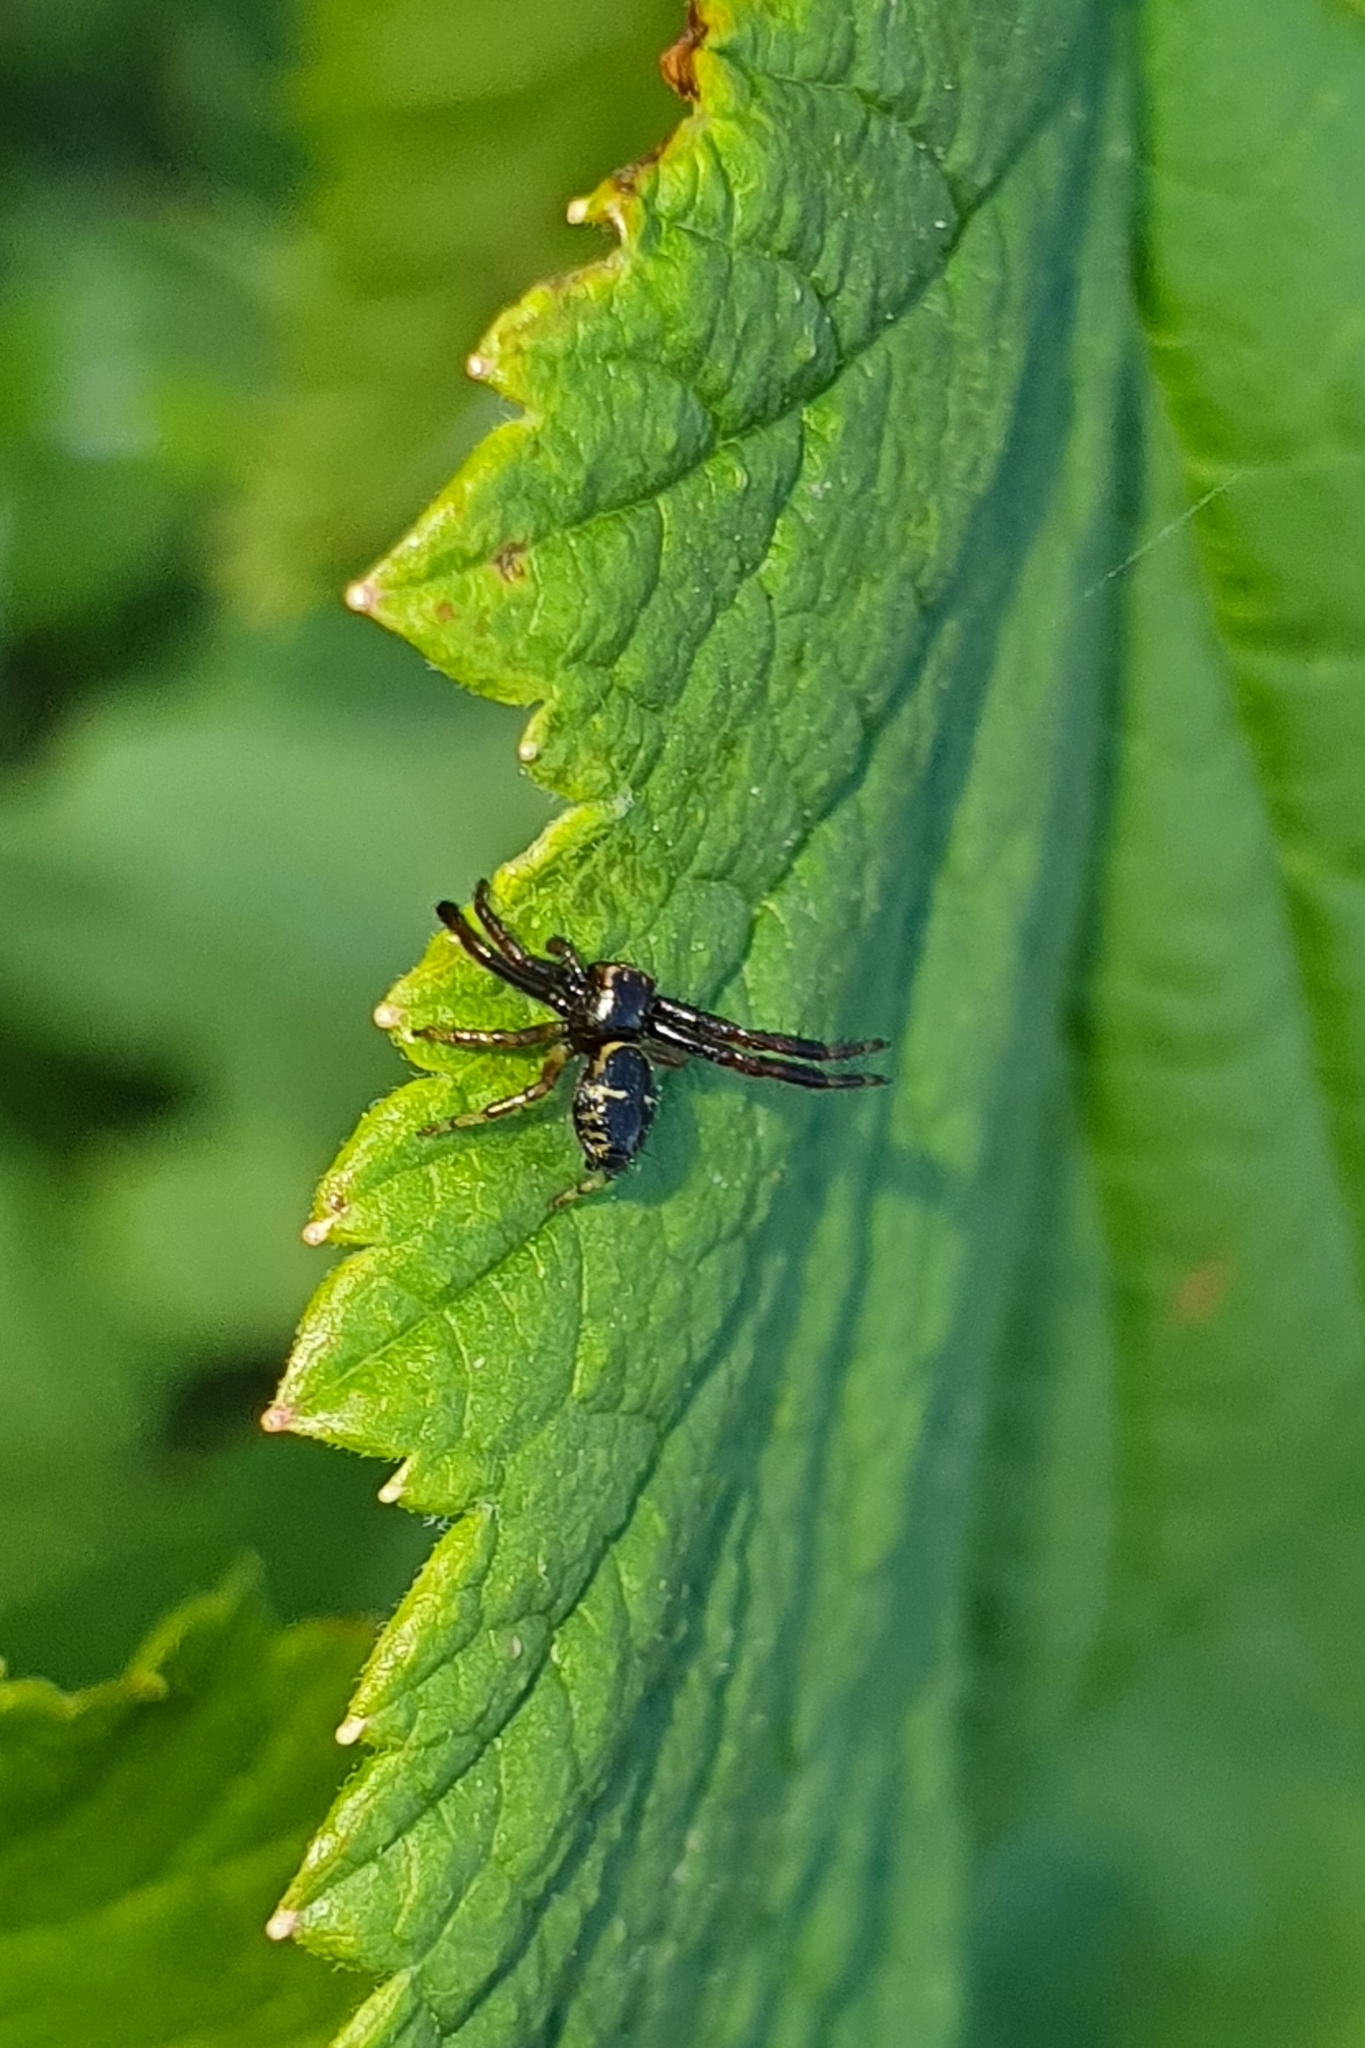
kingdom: Animalia
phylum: Arthropoda
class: Arachnida
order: Araneae
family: Thomisidae
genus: Synema
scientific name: Synema globosum
